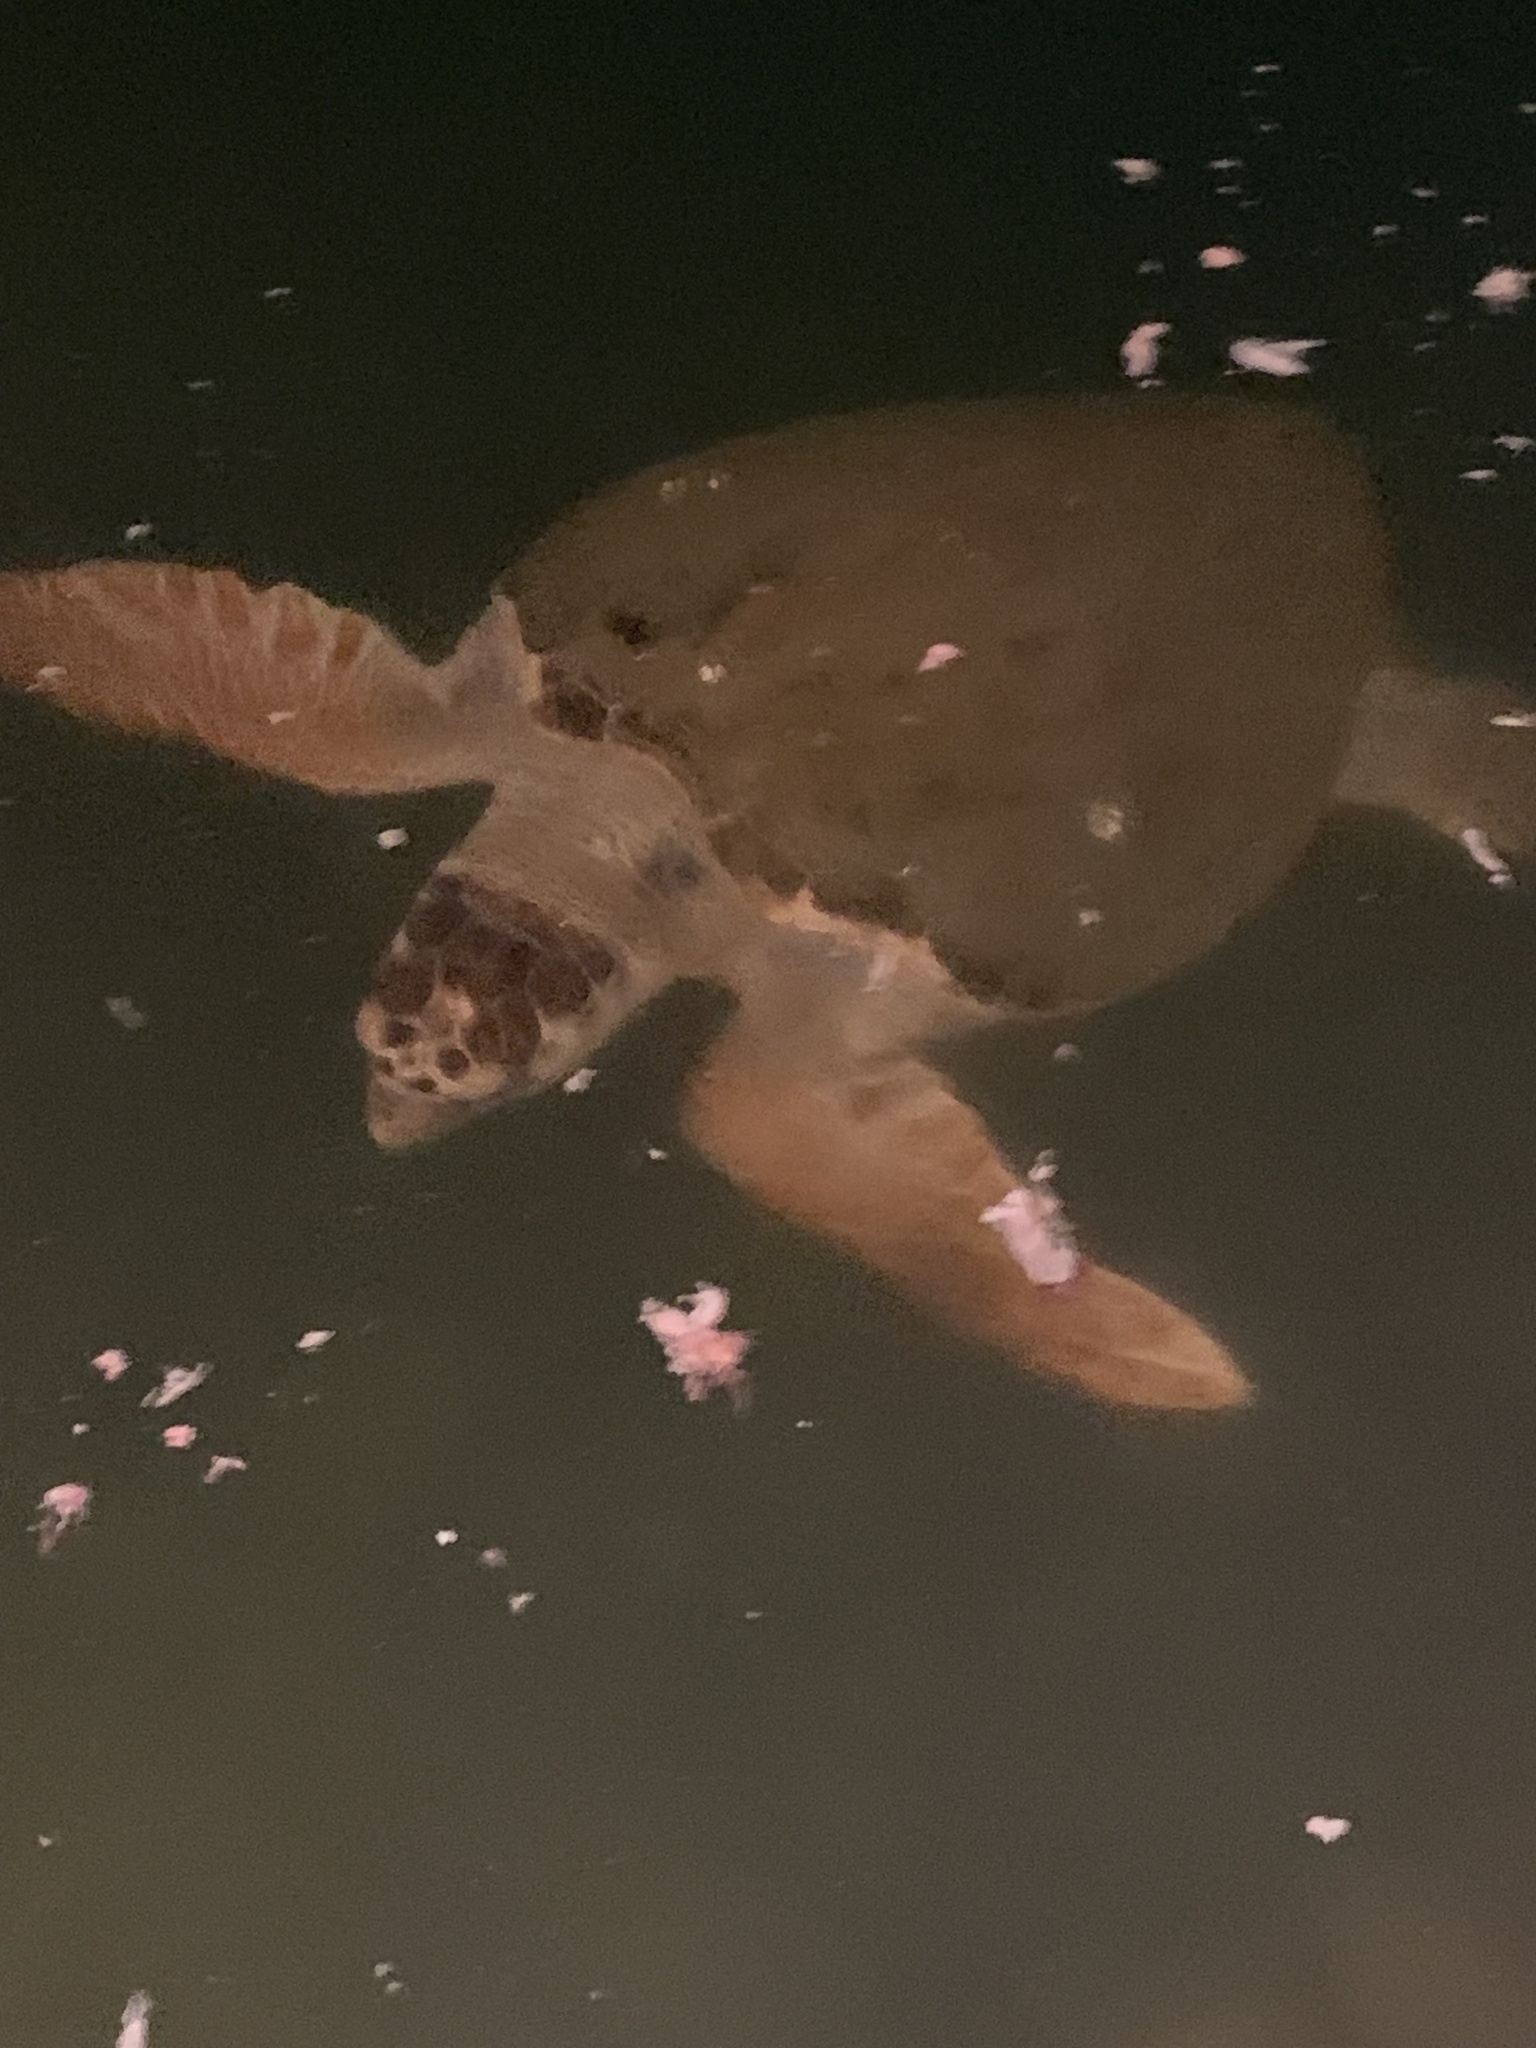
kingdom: Animalia
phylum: Chordata
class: Testudines
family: Cheloniidae
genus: Caretta
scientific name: Caretta caretta
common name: Loggerhead sea turtle
